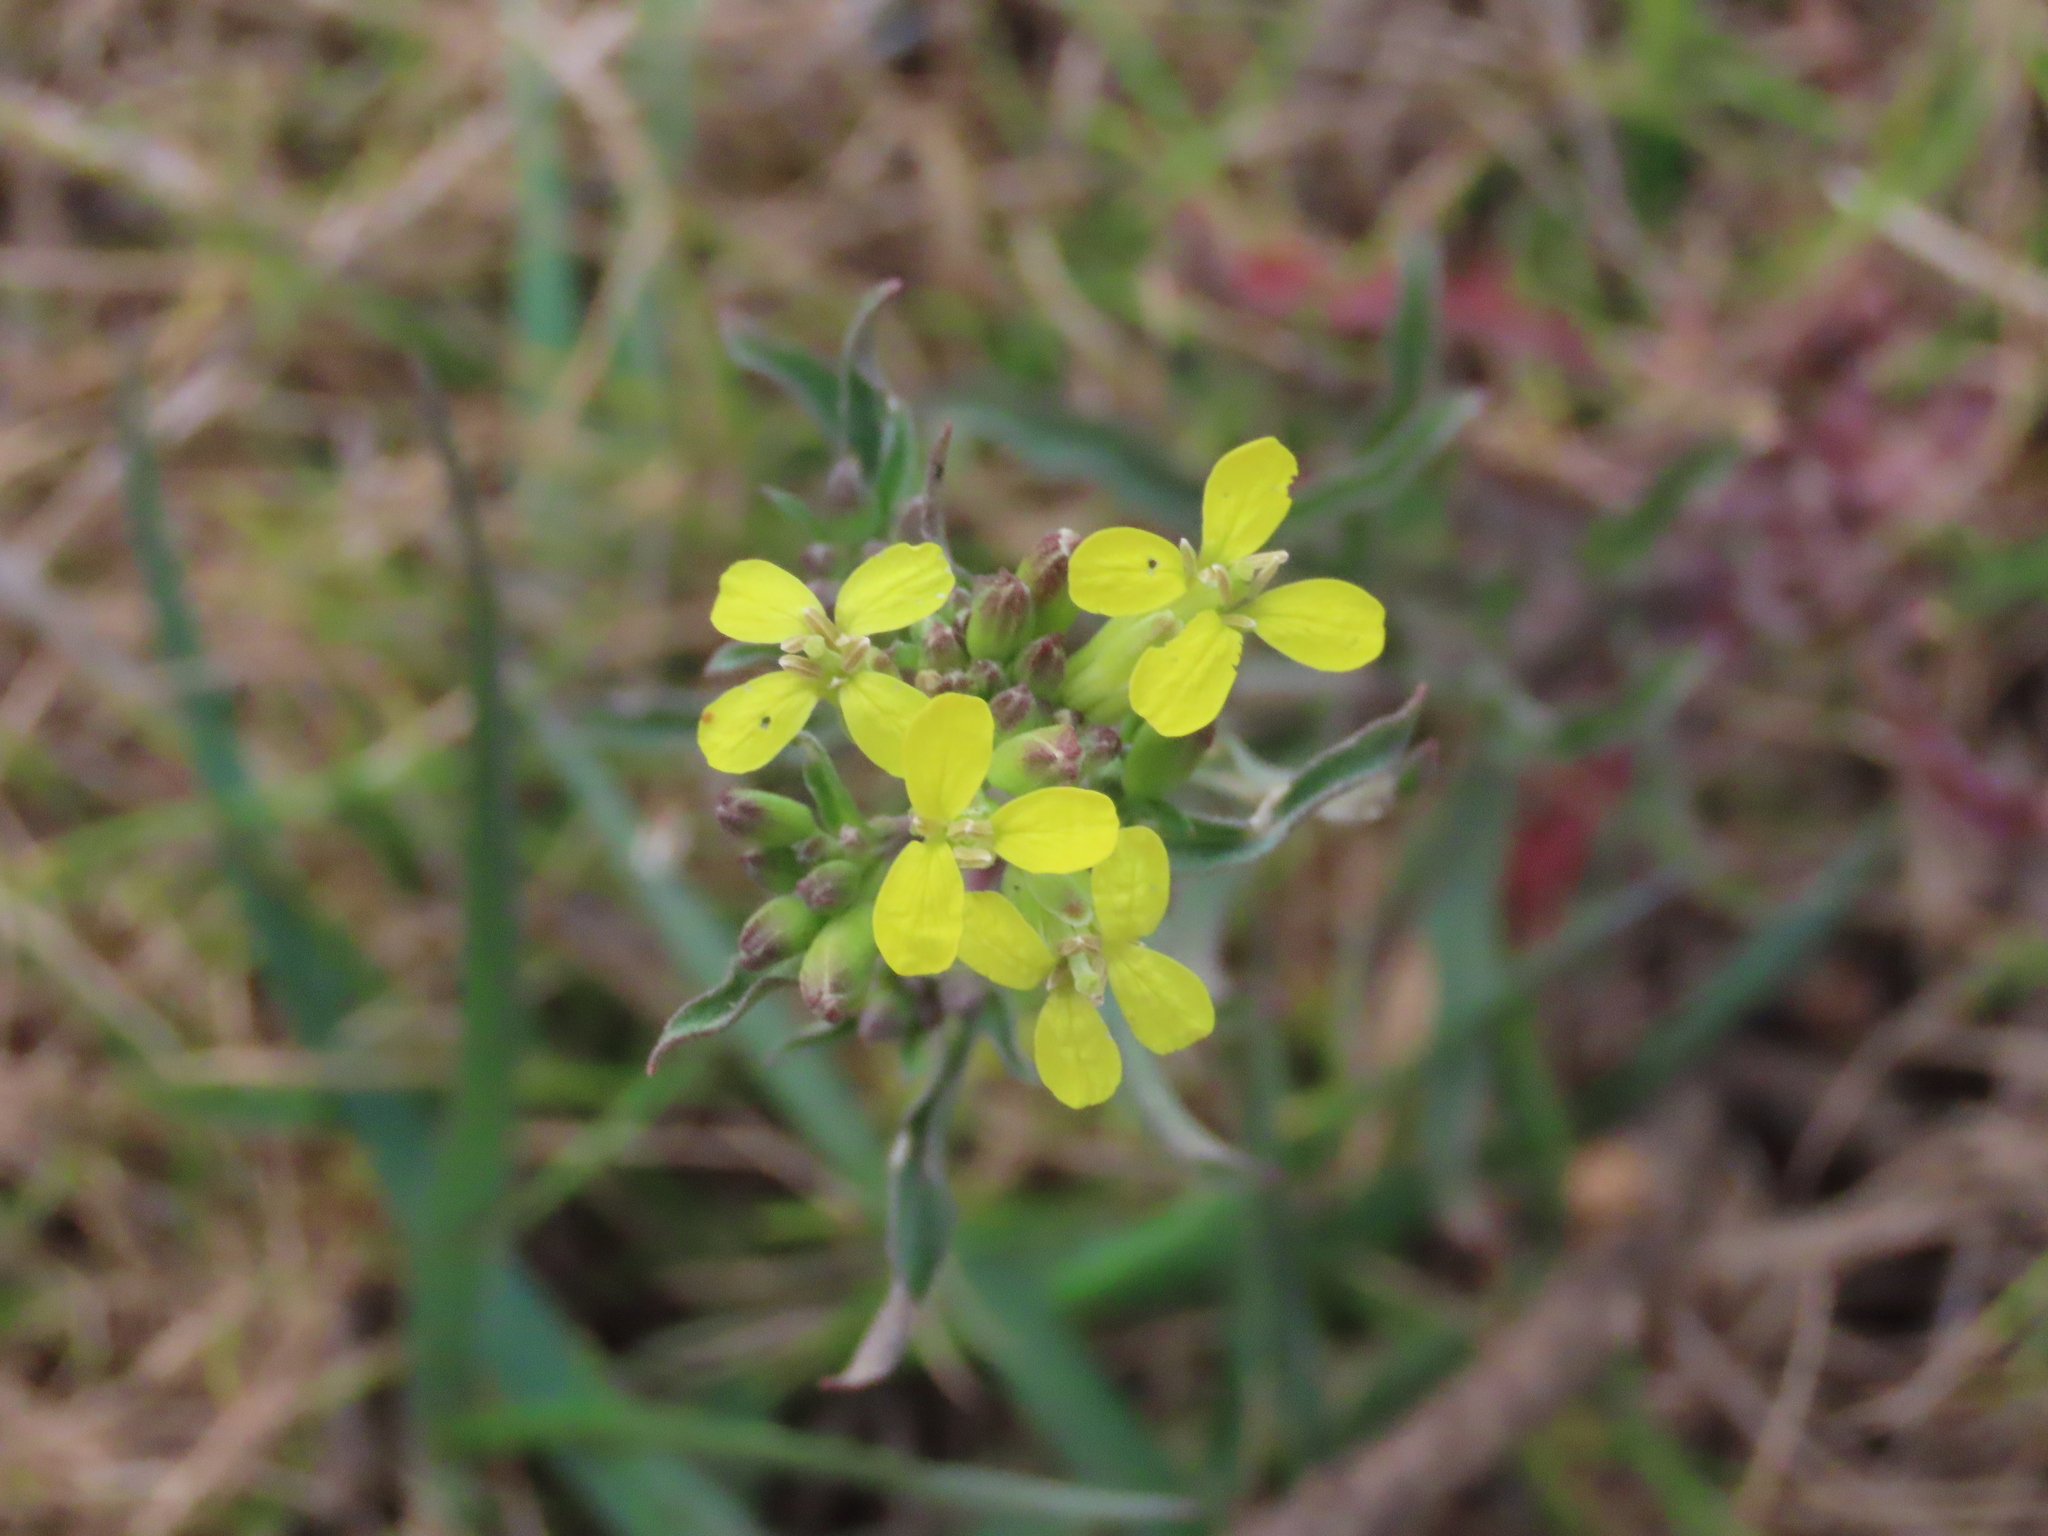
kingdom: Plantae
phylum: Tracheophyta
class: Magnoliopsida
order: Brassicales
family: Brassicaceae
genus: Erysimum
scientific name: Erysimum crepidifolium
